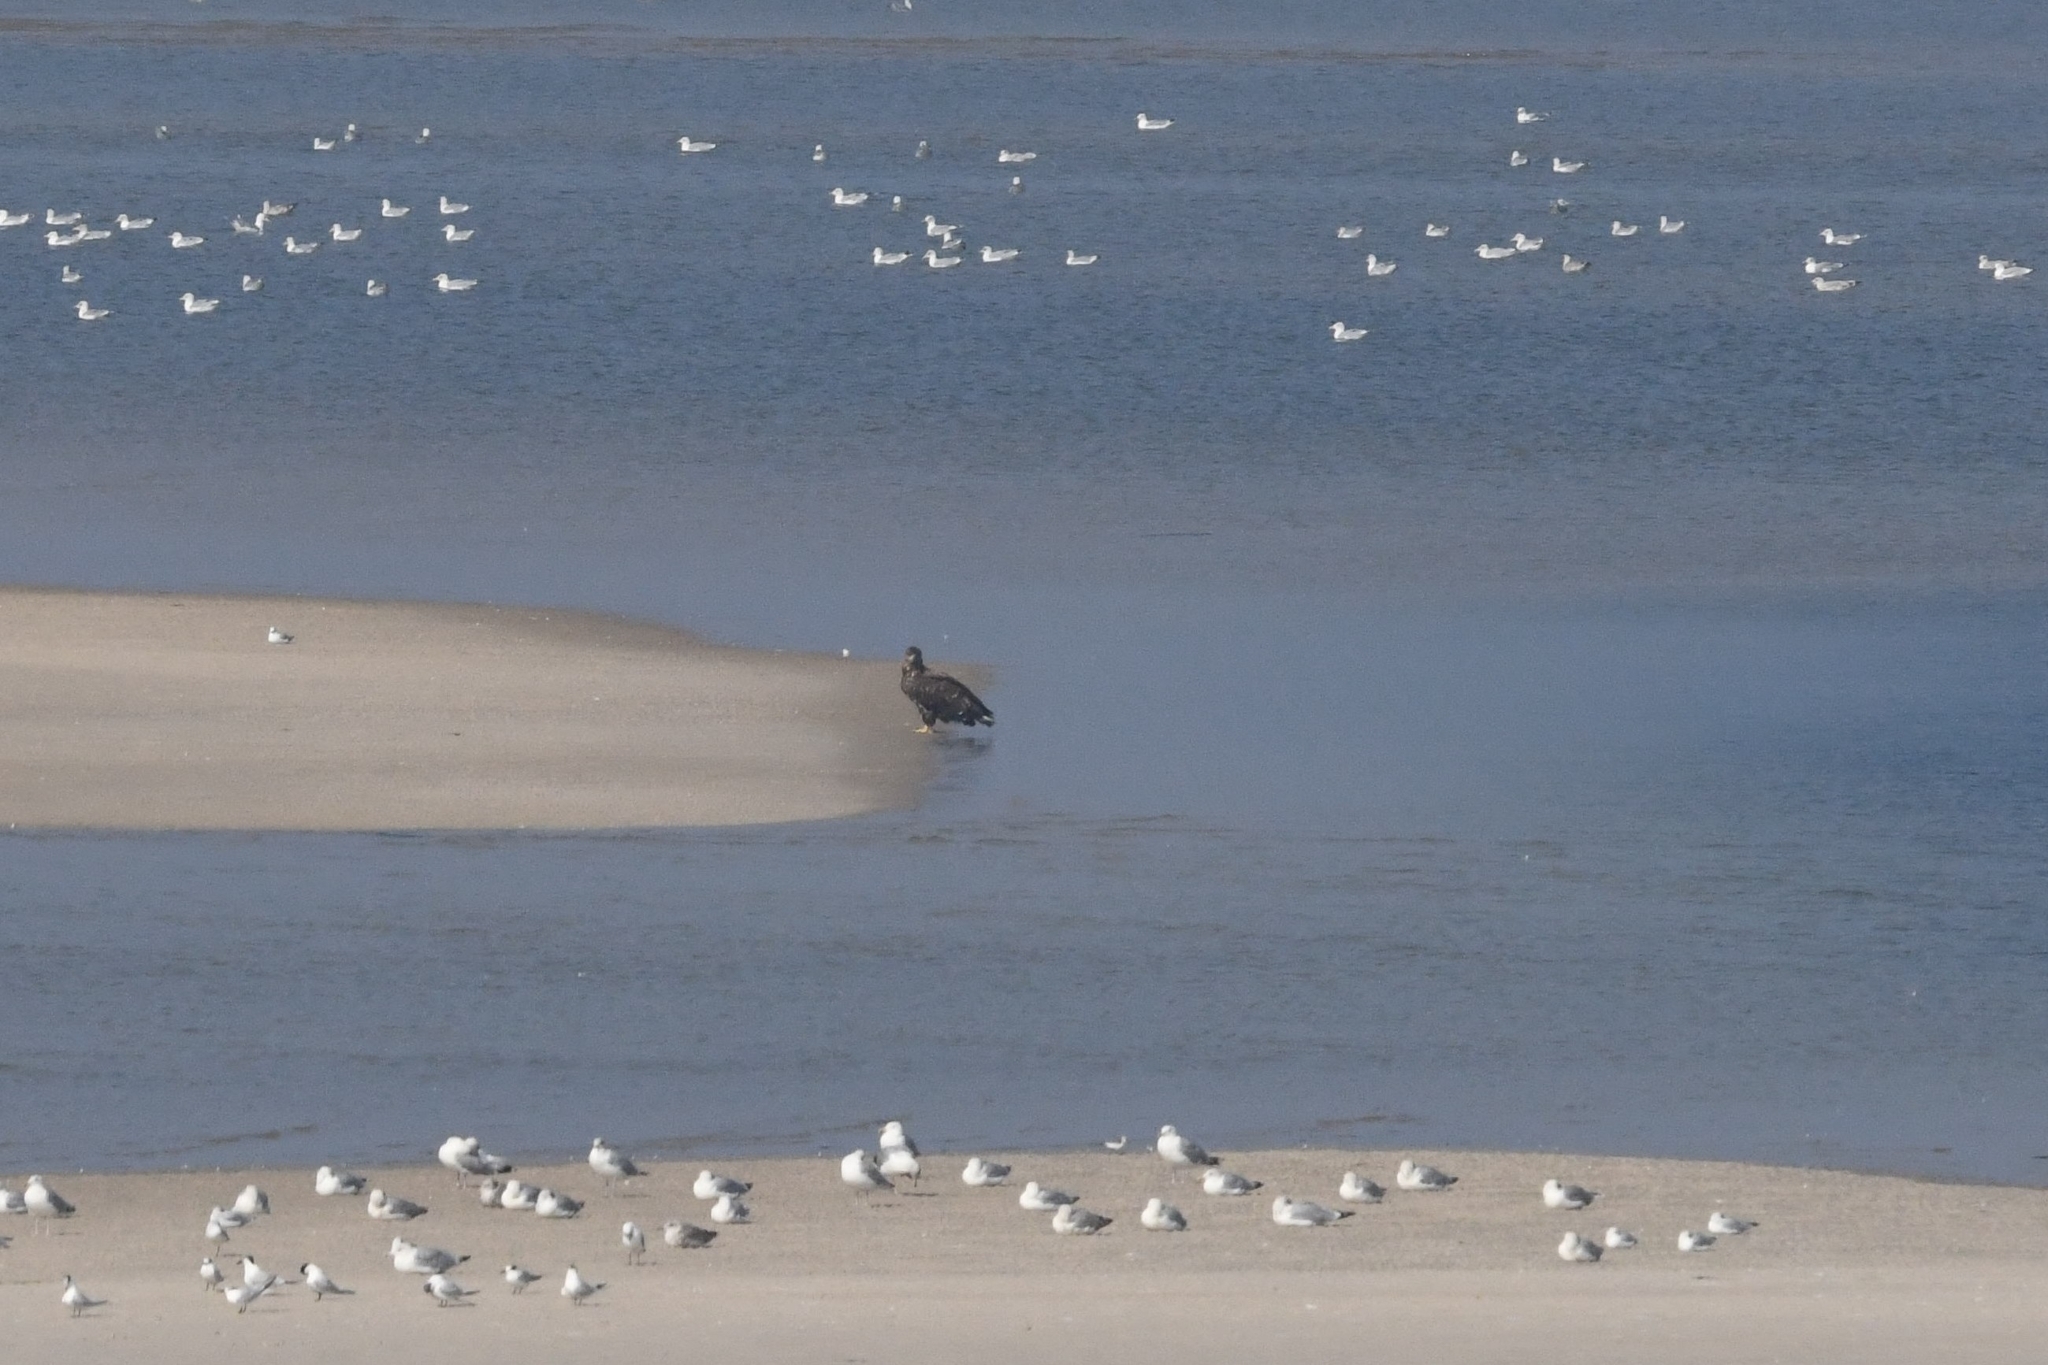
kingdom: Animalia
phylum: Chordata
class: Aves
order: Accipitriformes
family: Accipitridae
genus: Haliaeetus
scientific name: Haliaeetus albicilla
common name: White-tailed eagle
